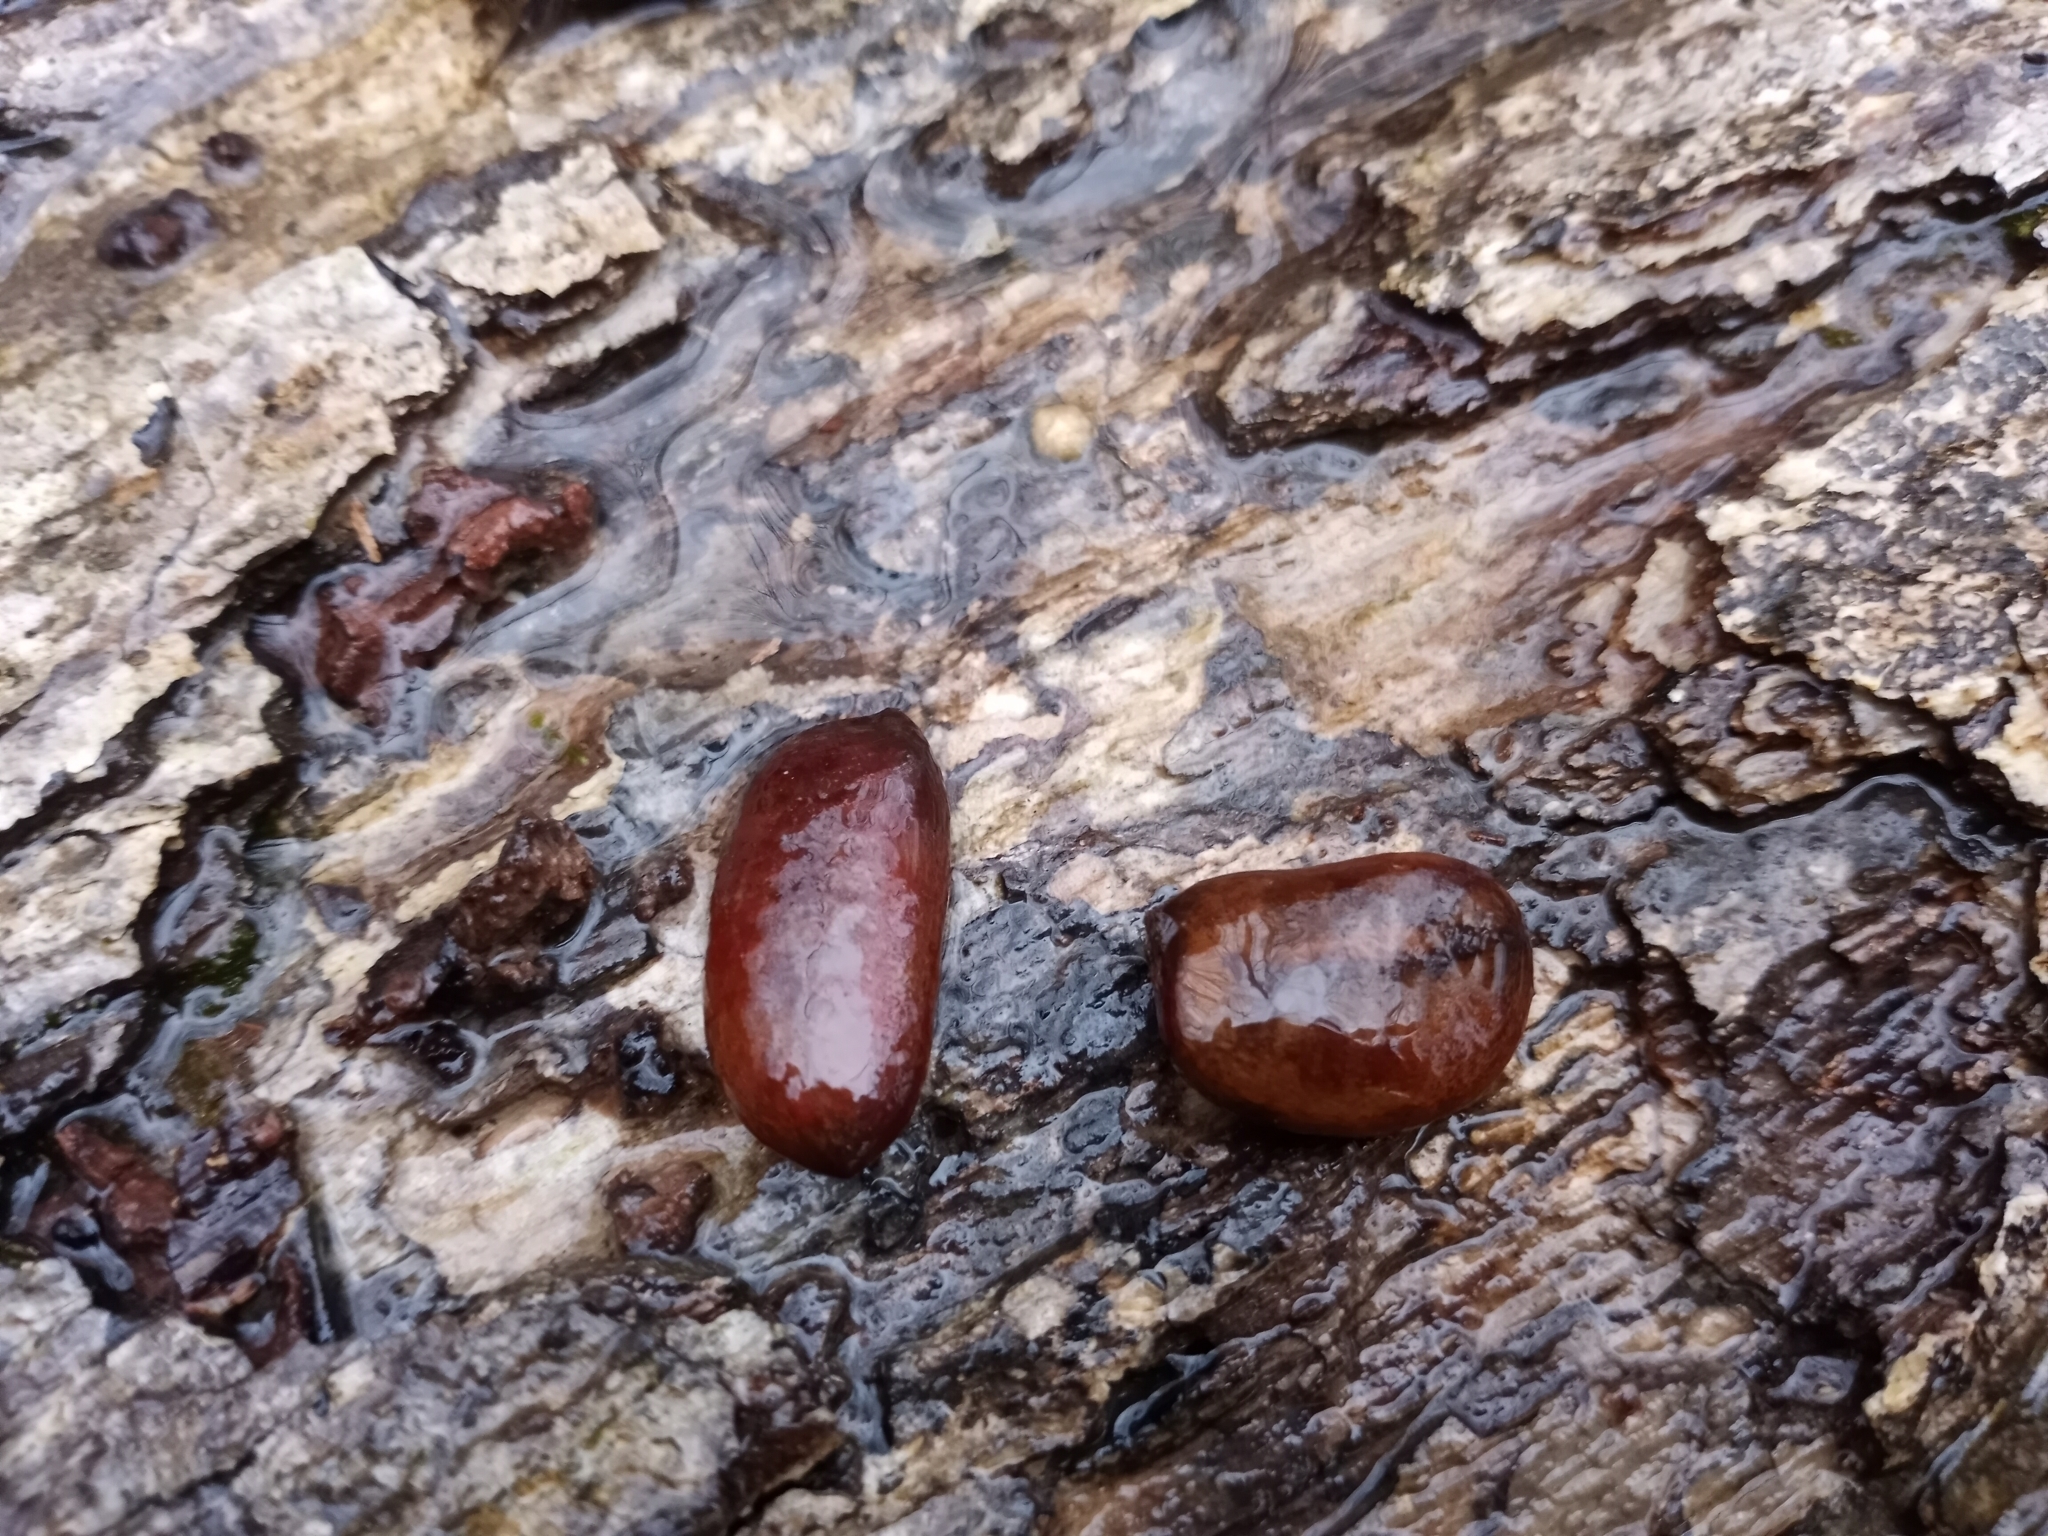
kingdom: Plantae
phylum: Tracheophyta
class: Magnoliopsida
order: Magnoliales
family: Annonaceae
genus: Asimina
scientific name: Asimina triloba
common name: Dog-banana
